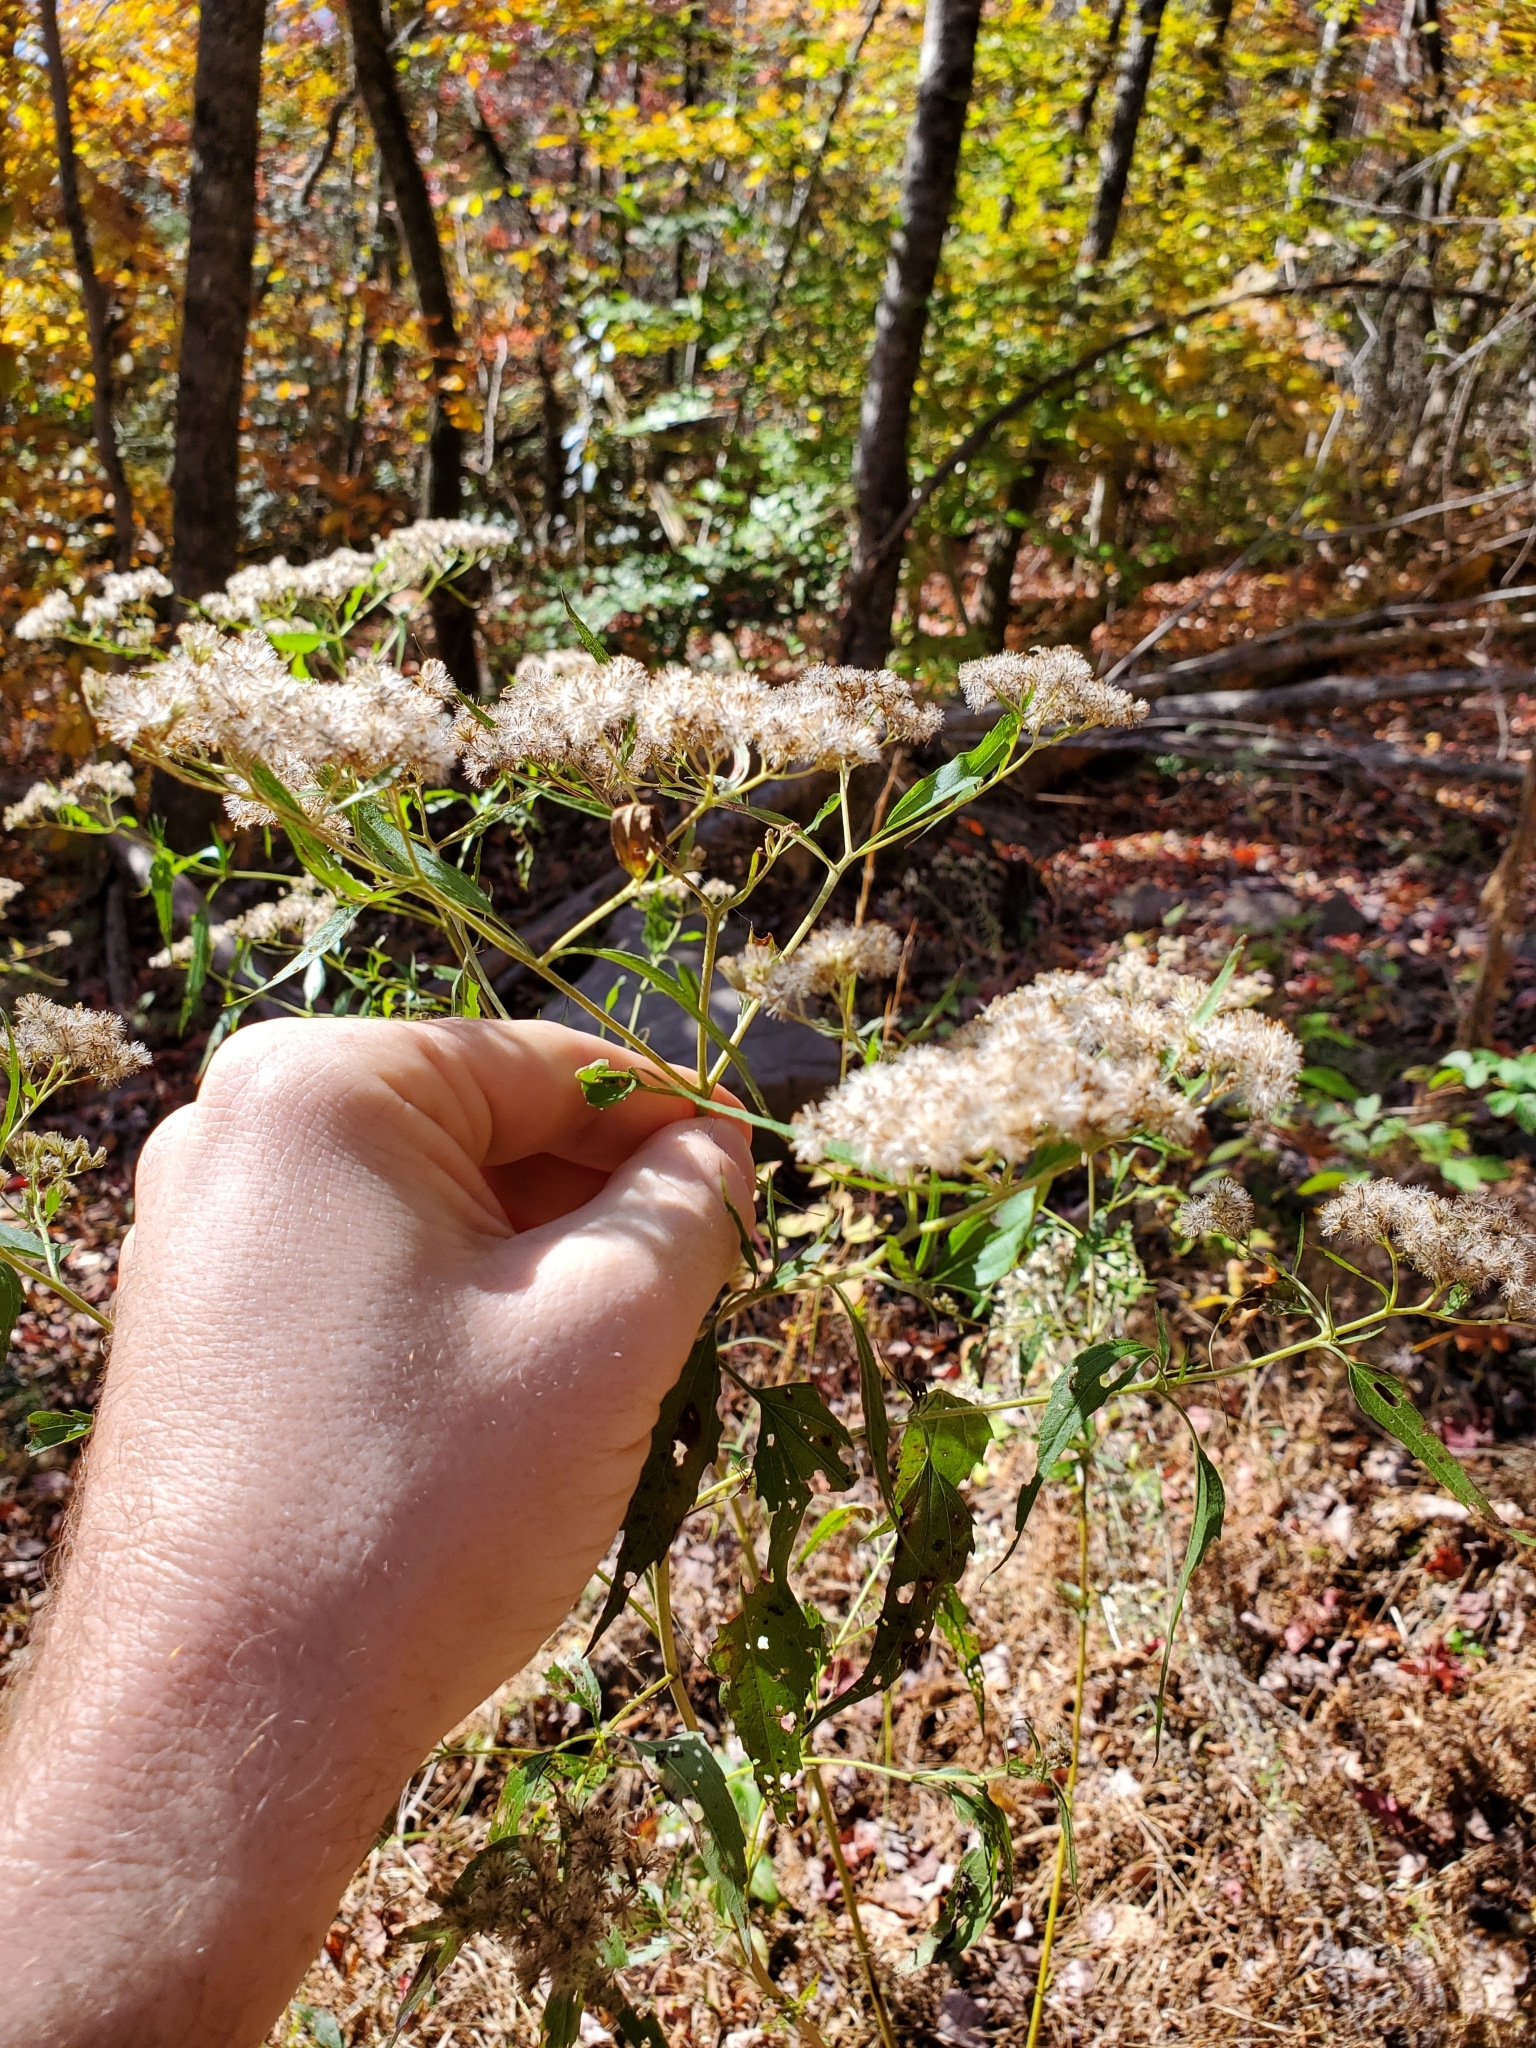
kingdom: Plantae
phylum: Tracheophyta
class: Magnoliopsida
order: Asterales
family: Asteraceae
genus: Eupatorium
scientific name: Eupatorium serotinum
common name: Late boneset
